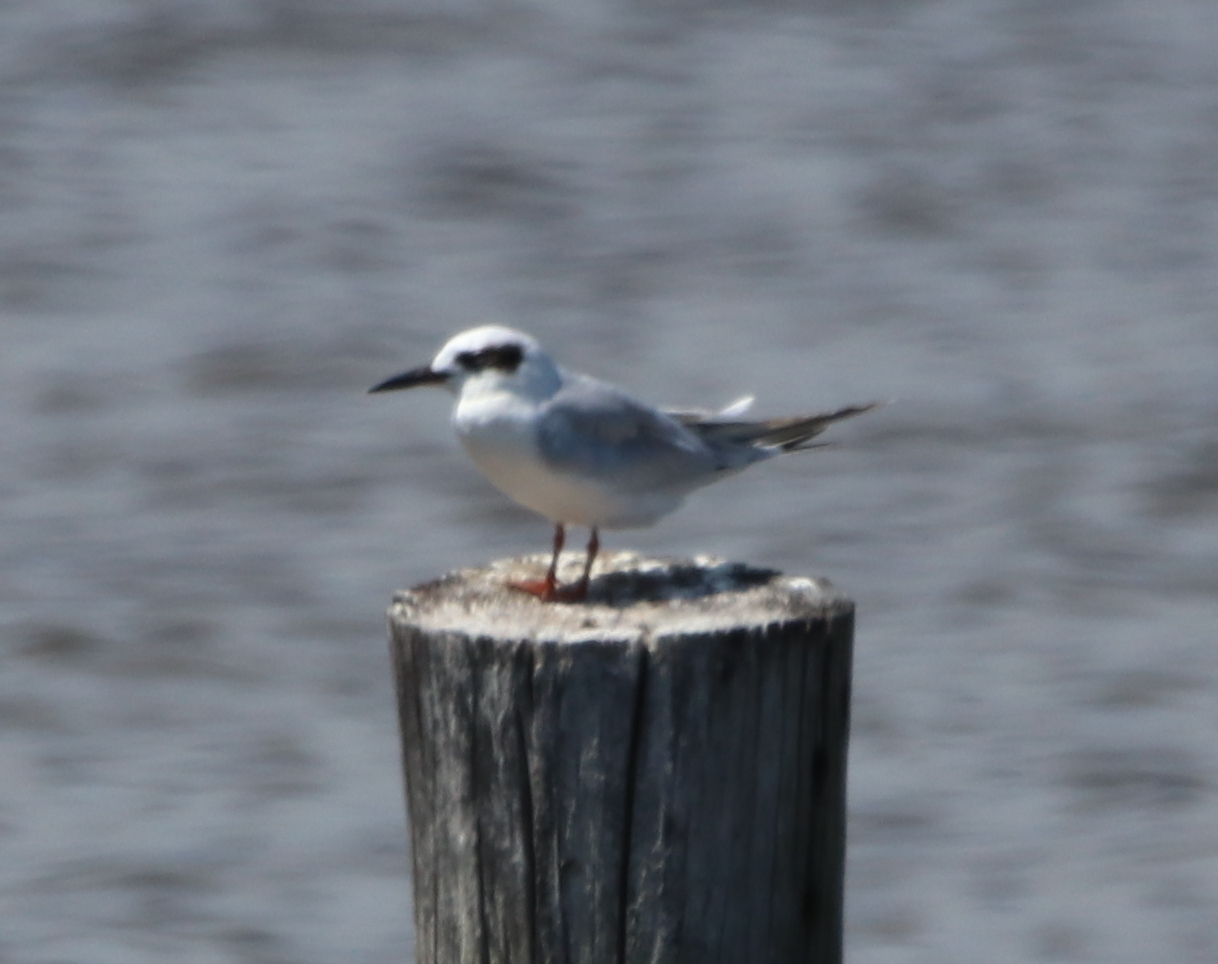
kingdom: Animalia
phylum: Chordata
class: Aves
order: Charadriiformes
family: Laridae
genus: Sterna
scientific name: Sterna forsteri
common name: Forster's tern
